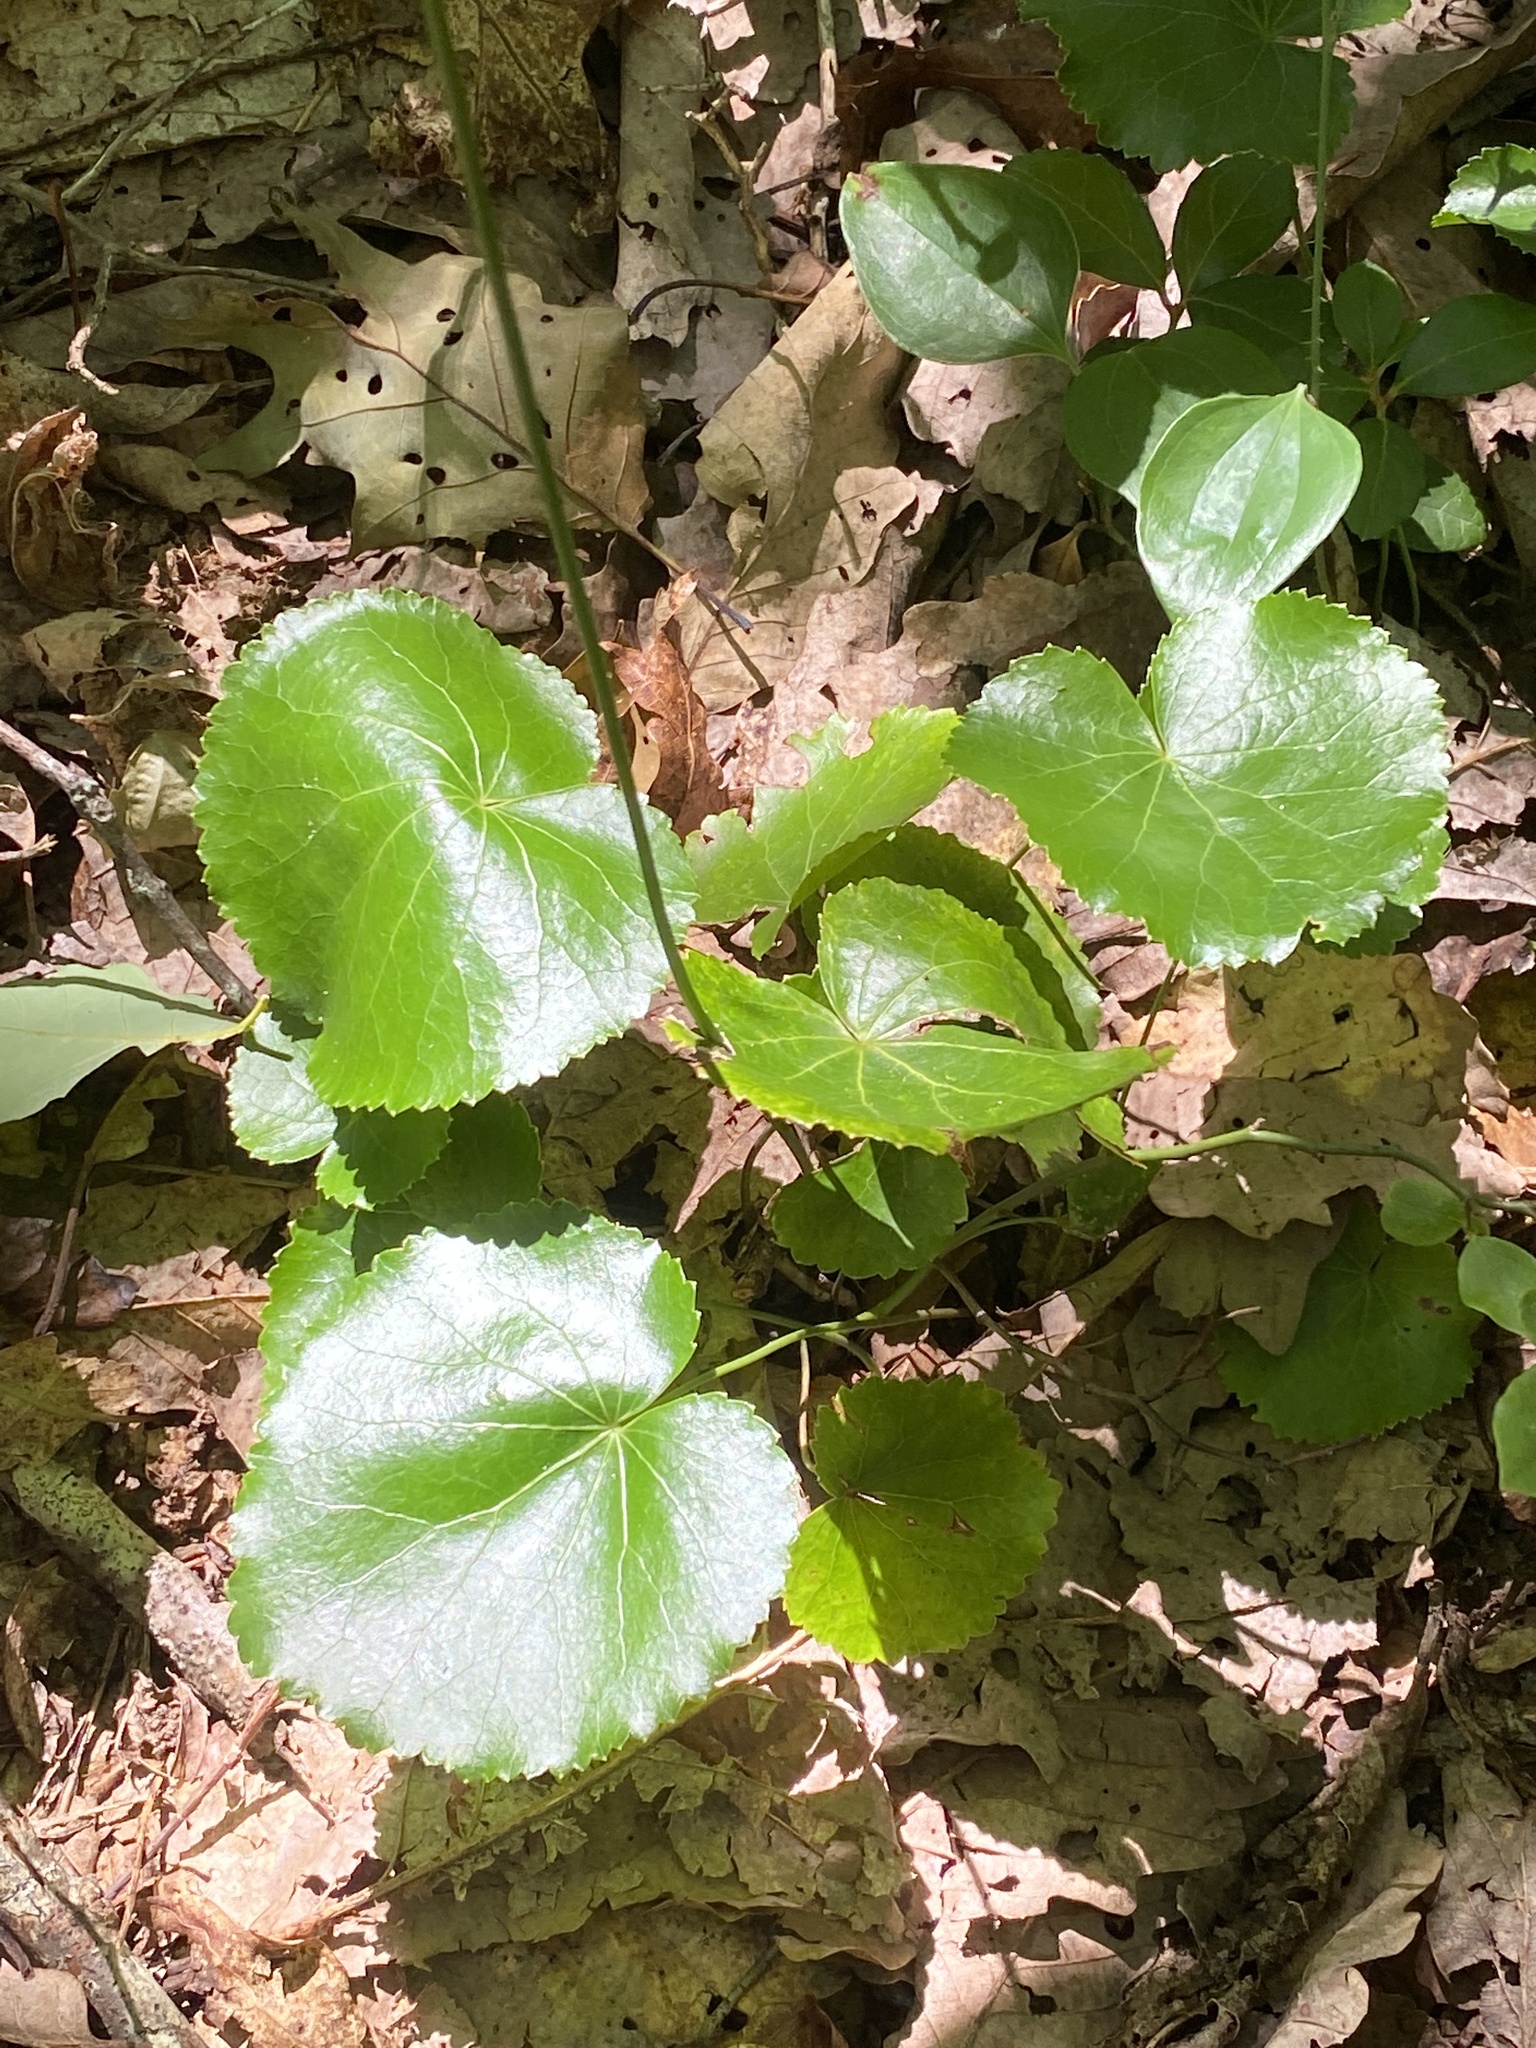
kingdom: Plantae
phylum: Tracheophyta
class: Magnoliopsida
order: Ericales
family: Diapensiaceae
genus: Galax
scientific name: Galax urceolata
